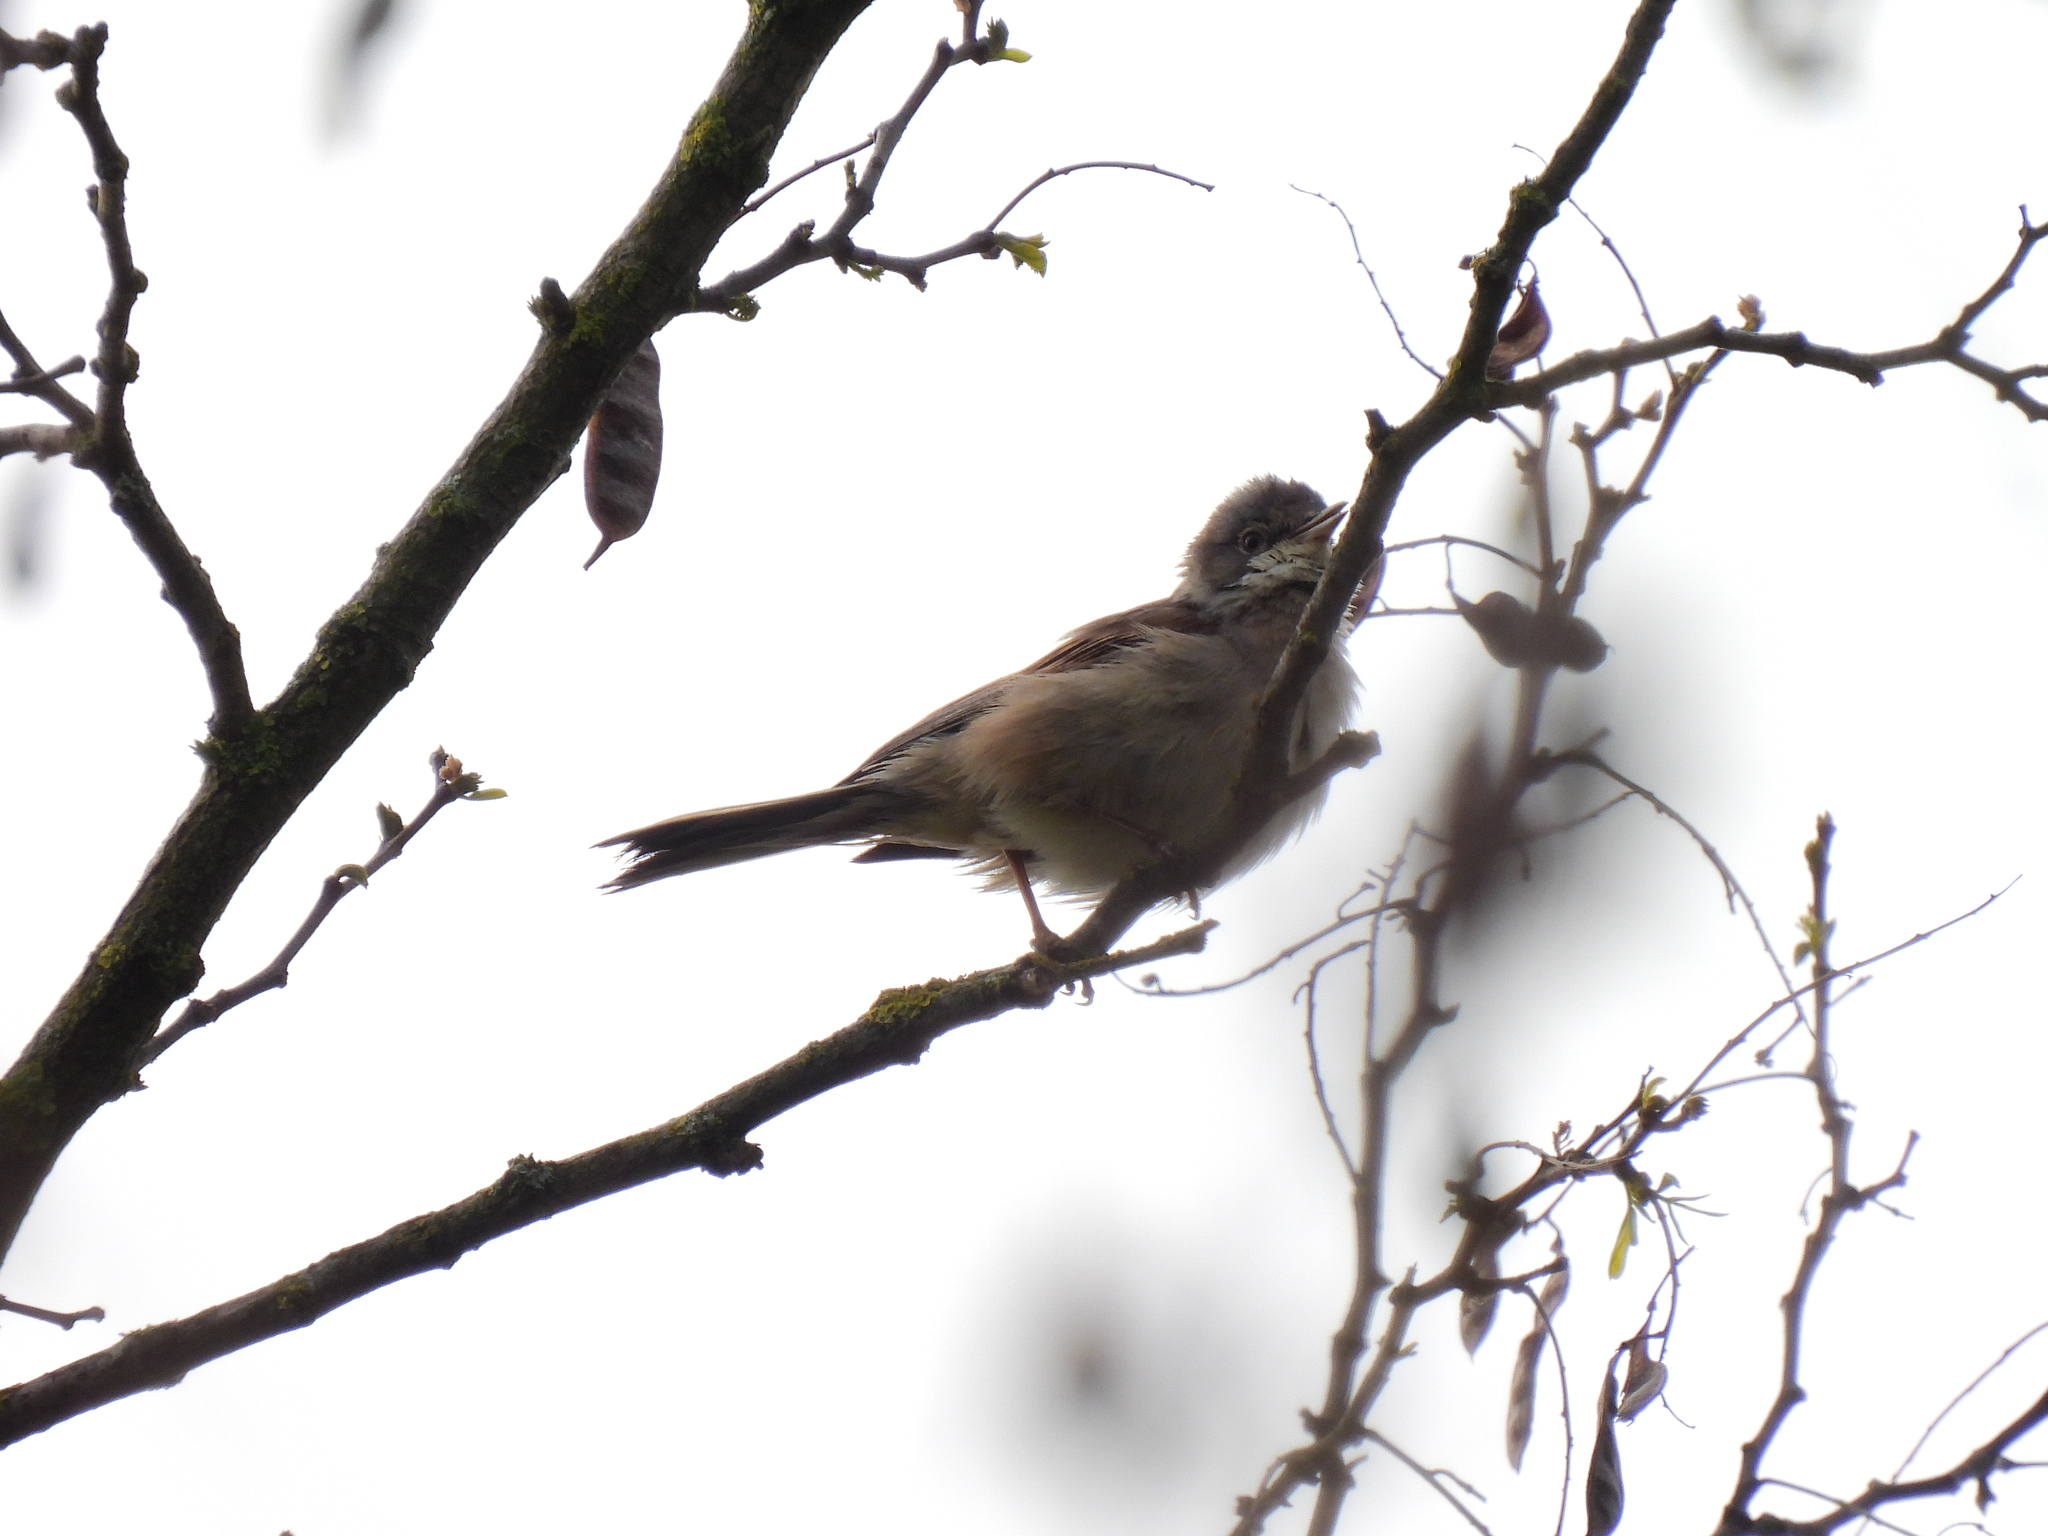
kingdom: Animalia
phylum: Chordata
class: Aves
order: Passeriformes
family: Sylviidae
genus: Sylvia
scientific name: Sylvia communis
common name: Common whitethroat
